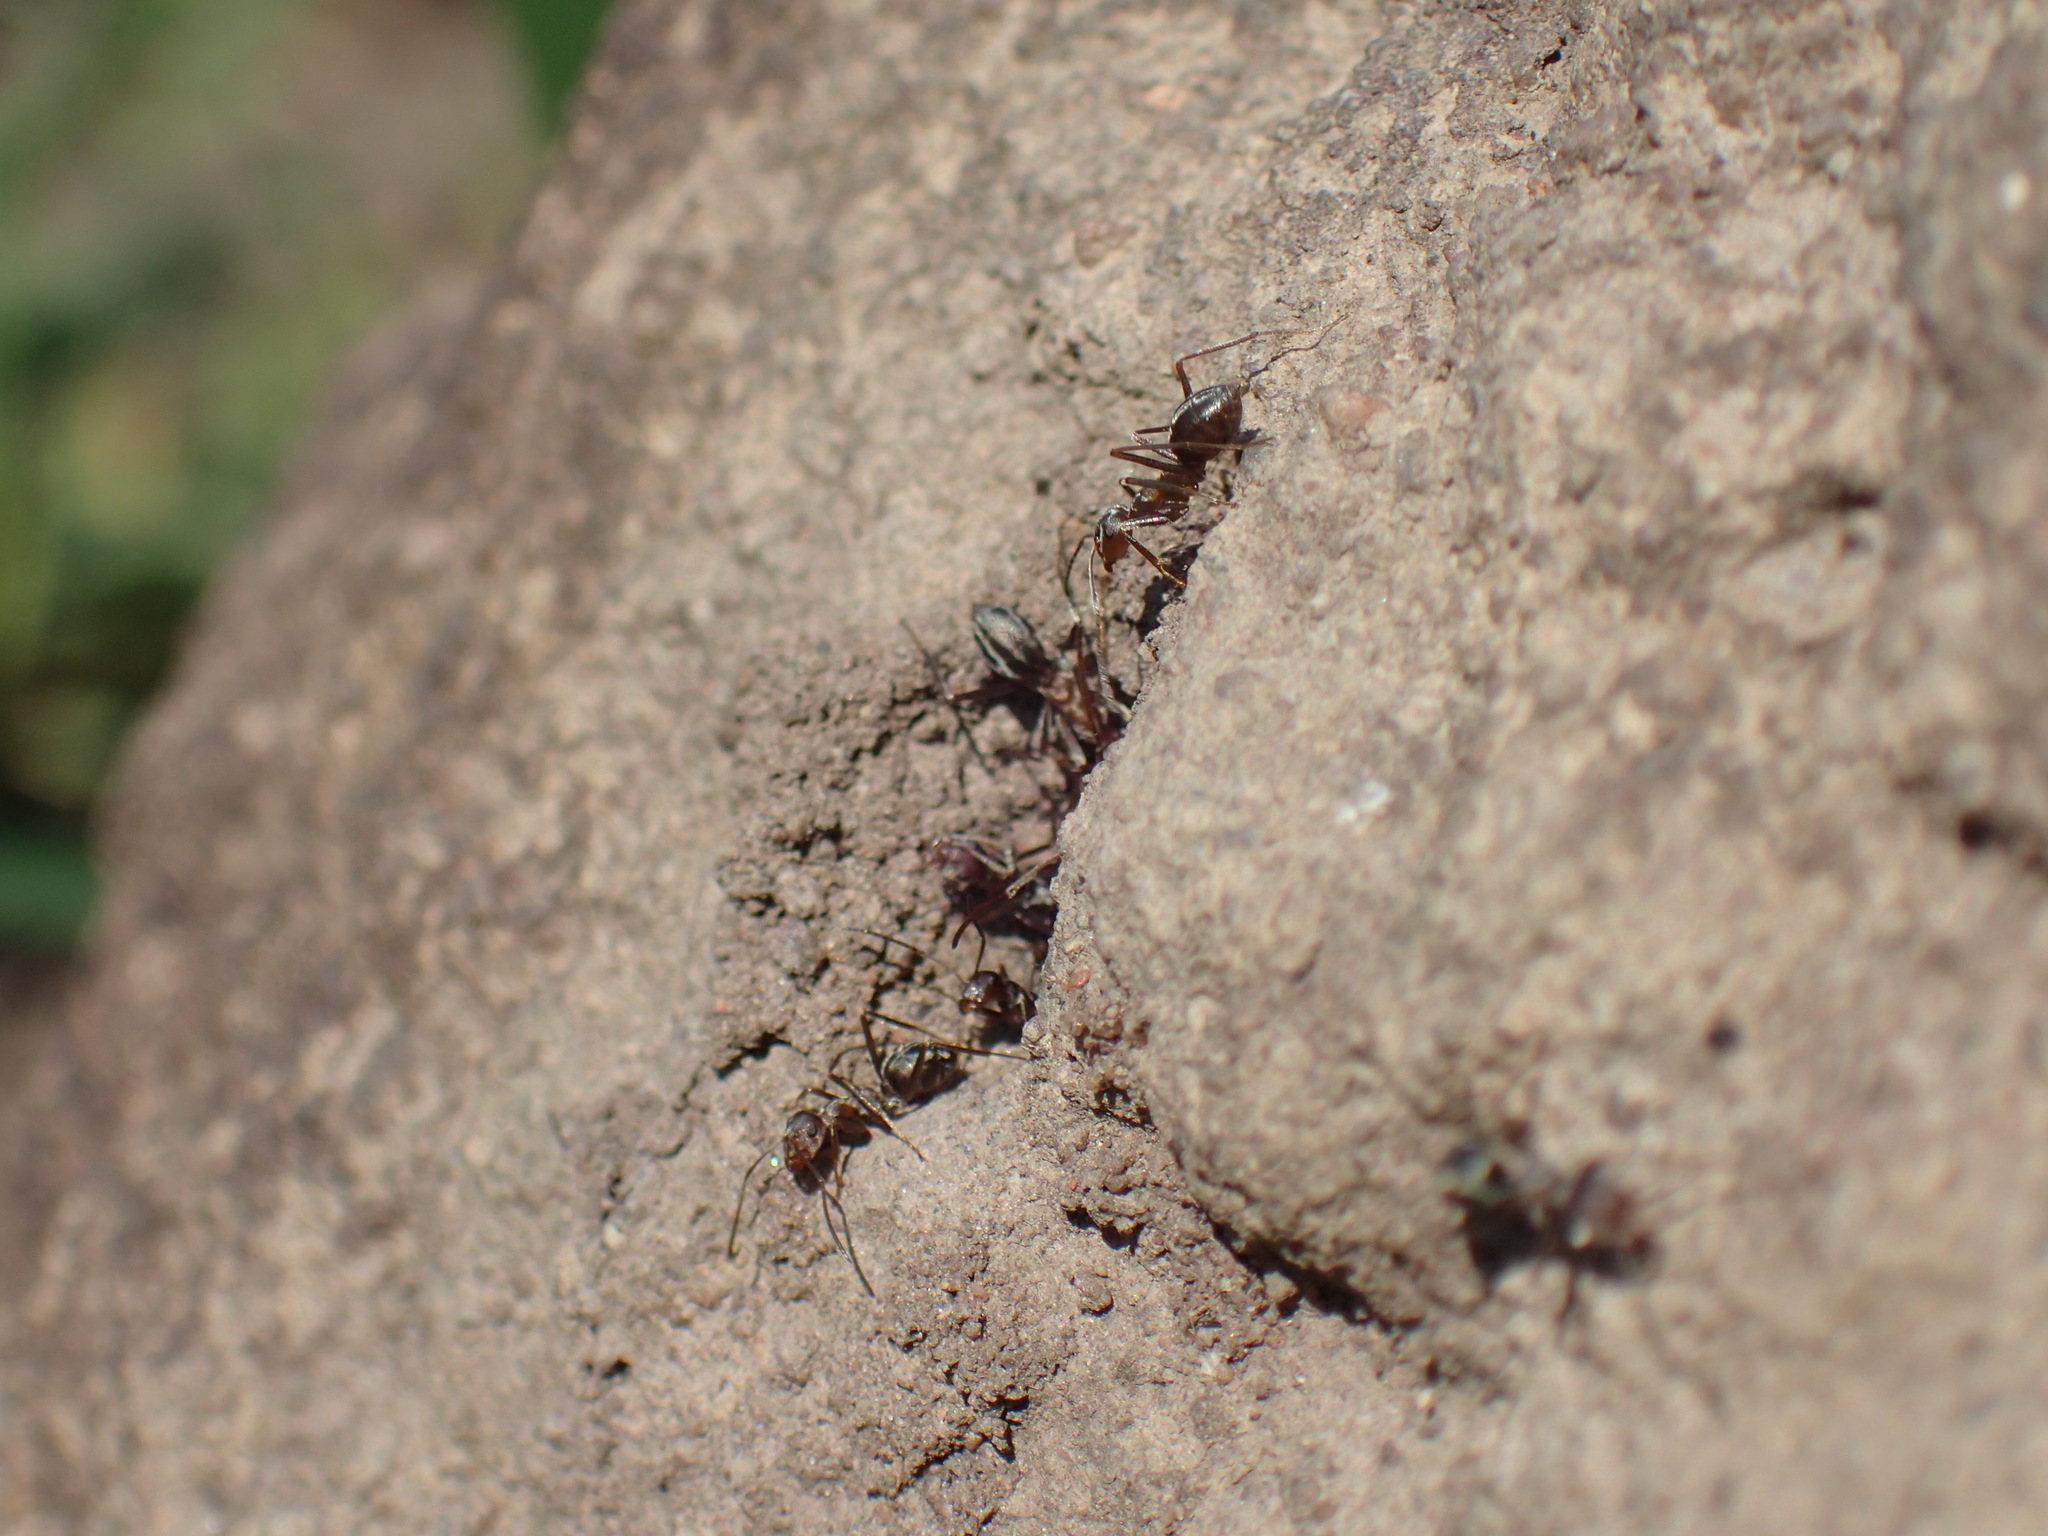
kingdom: Animalia
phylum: Arthropoda
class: Insecta
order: Hymenoptera
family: Formicidae
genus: Anoplolepis
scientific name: Anoplolepis custodiens
